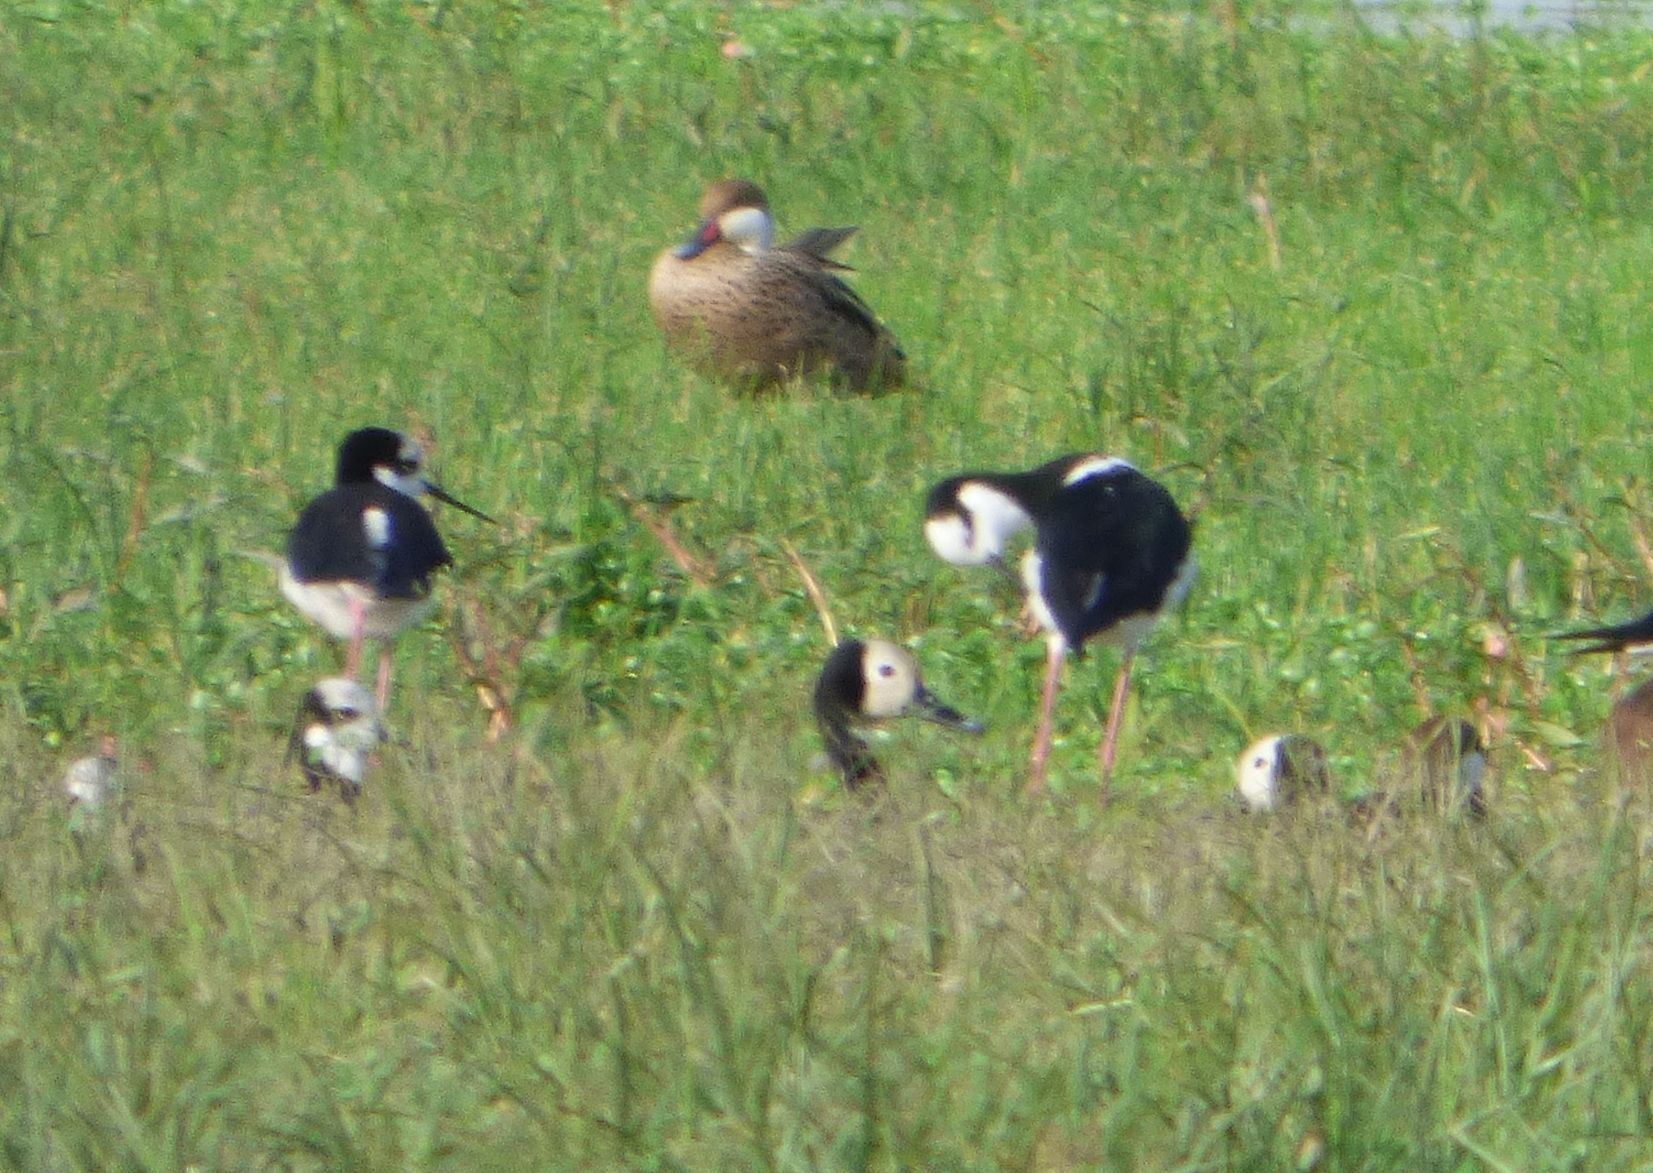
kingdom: Animalia
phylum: Chordata
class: Aves
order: Anseriformes
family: Anatidae
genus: Dendrocygna
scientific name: Dendrocygna viduata
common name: White-faced whistling duck
